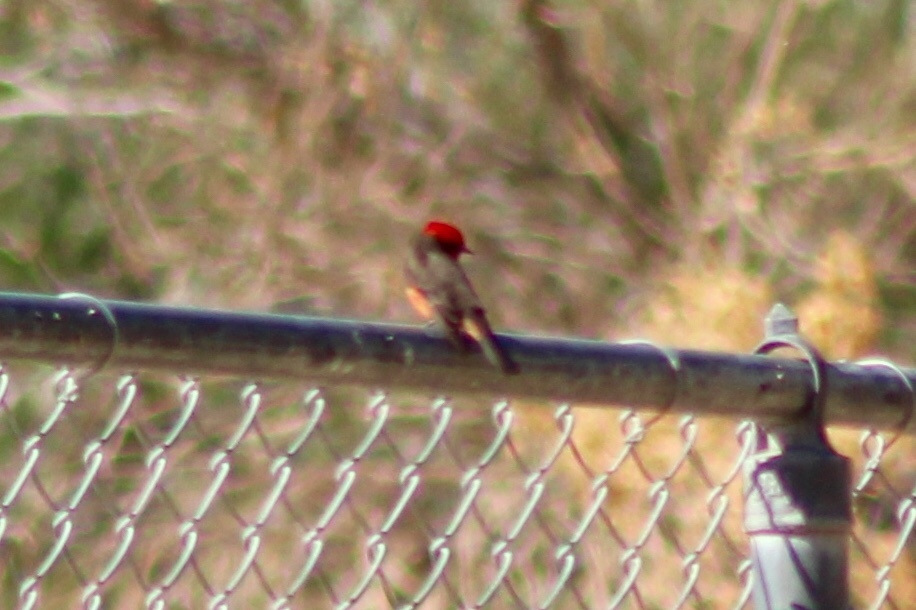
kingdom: Animalia
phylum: Chordata
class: Aves
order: Passeriformes
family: Tyrannidae
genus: Pyrocephalus
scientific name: Pyrocephalus rubinus
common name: Vermilion flycatcher
